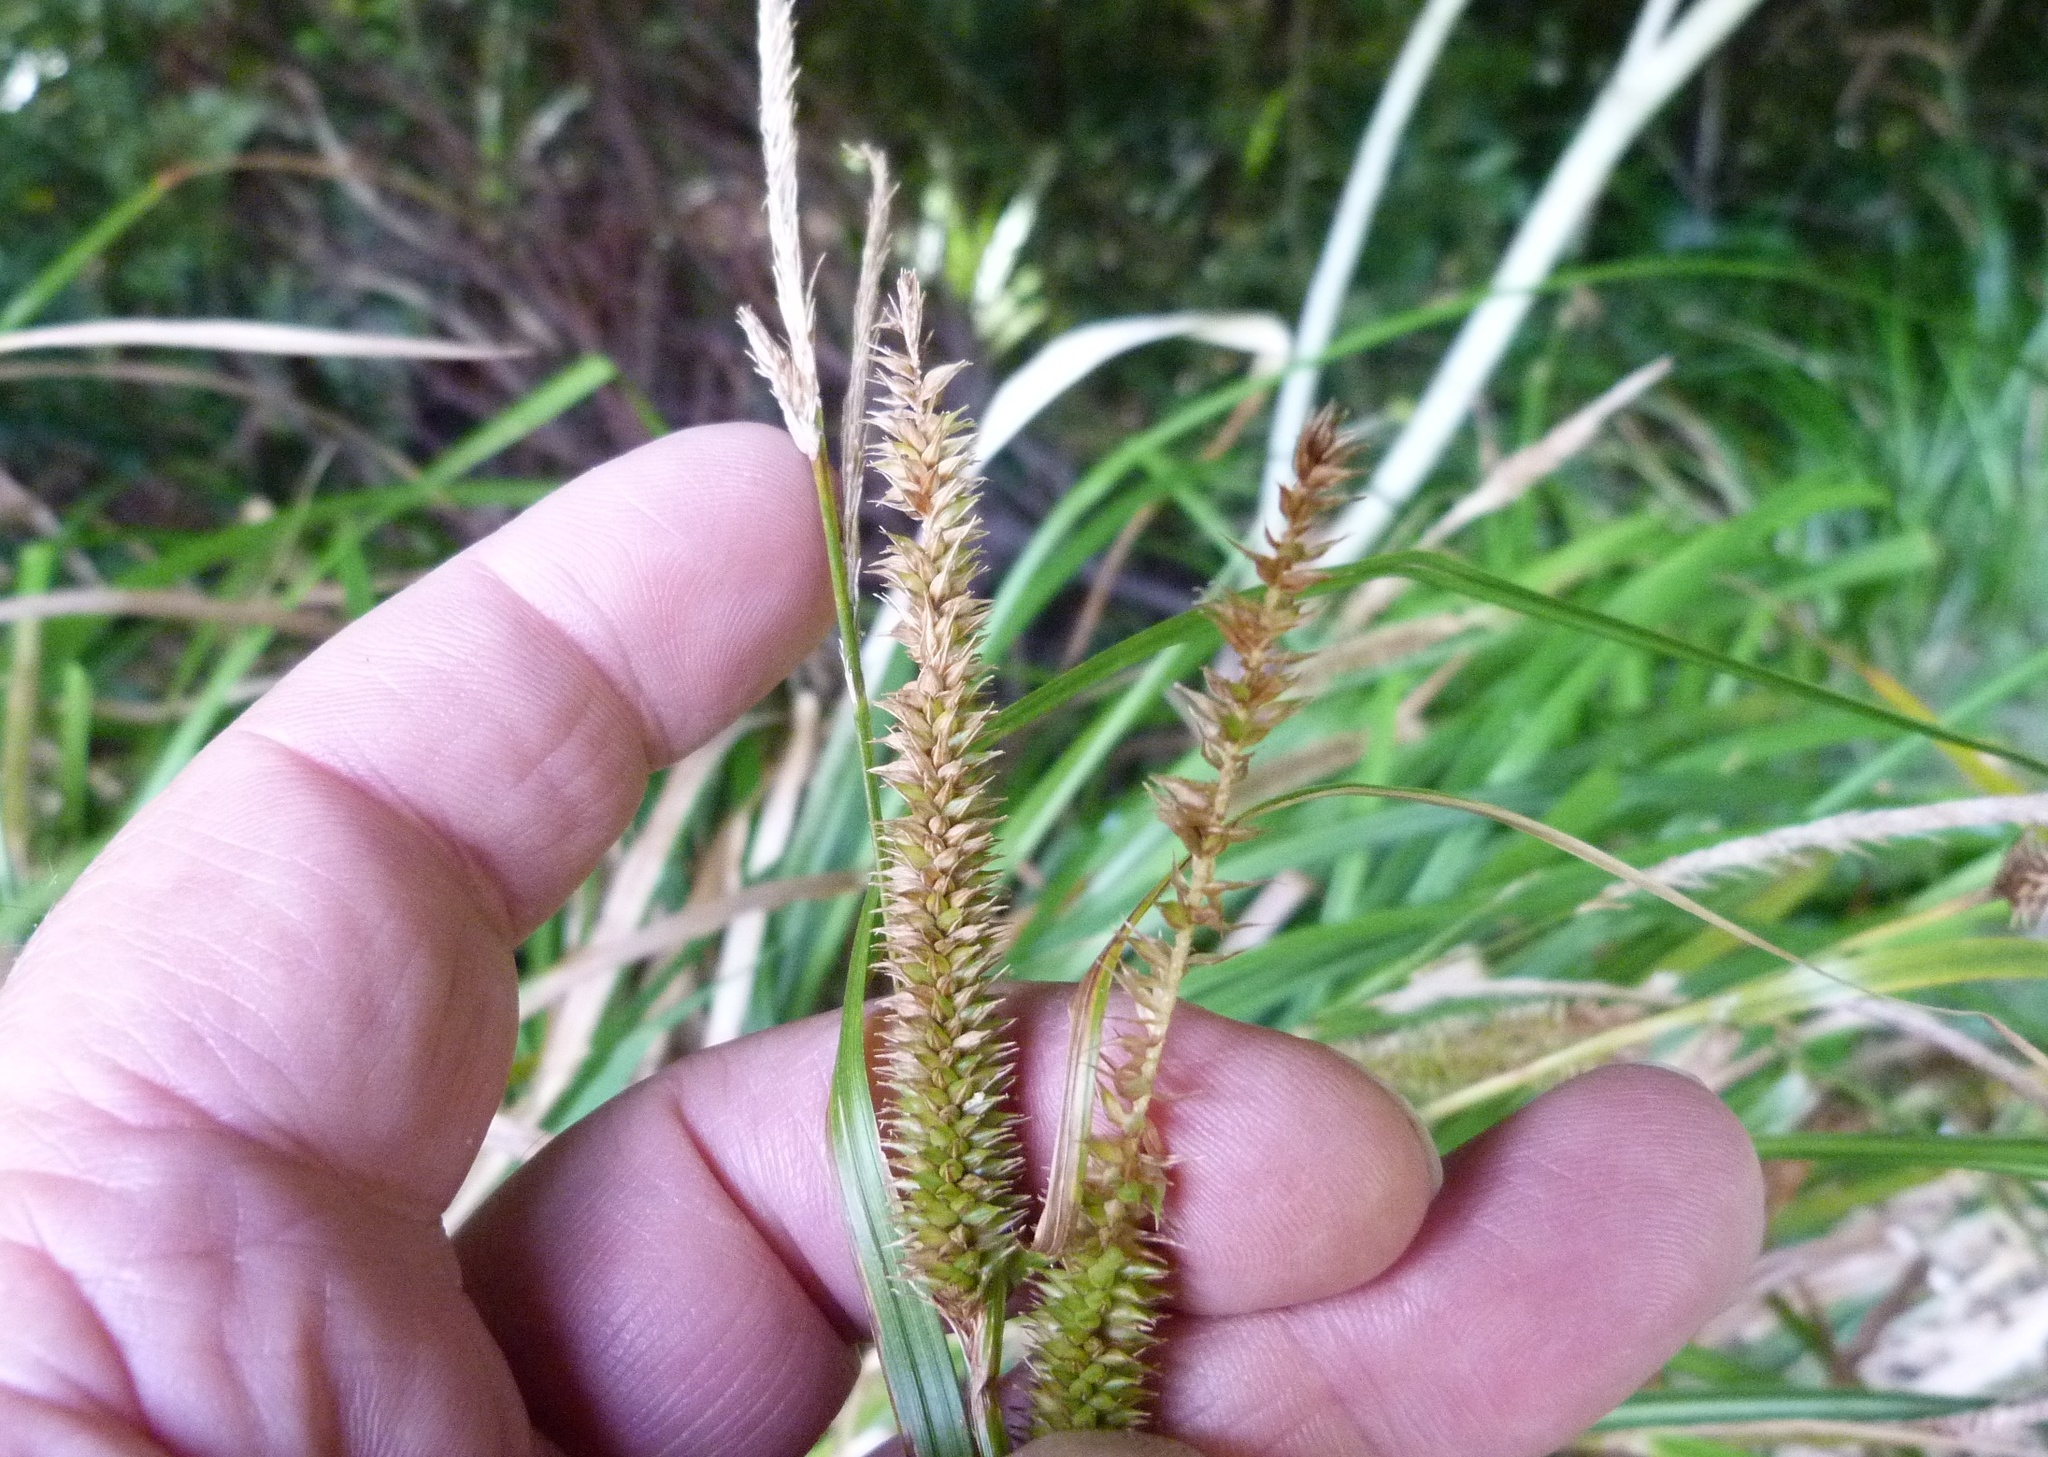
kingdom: Plantae
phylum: Tracheophyta
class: Liliopsida
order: Poales
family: Cyperaceae
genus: Carex
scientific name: Carex forsteri
